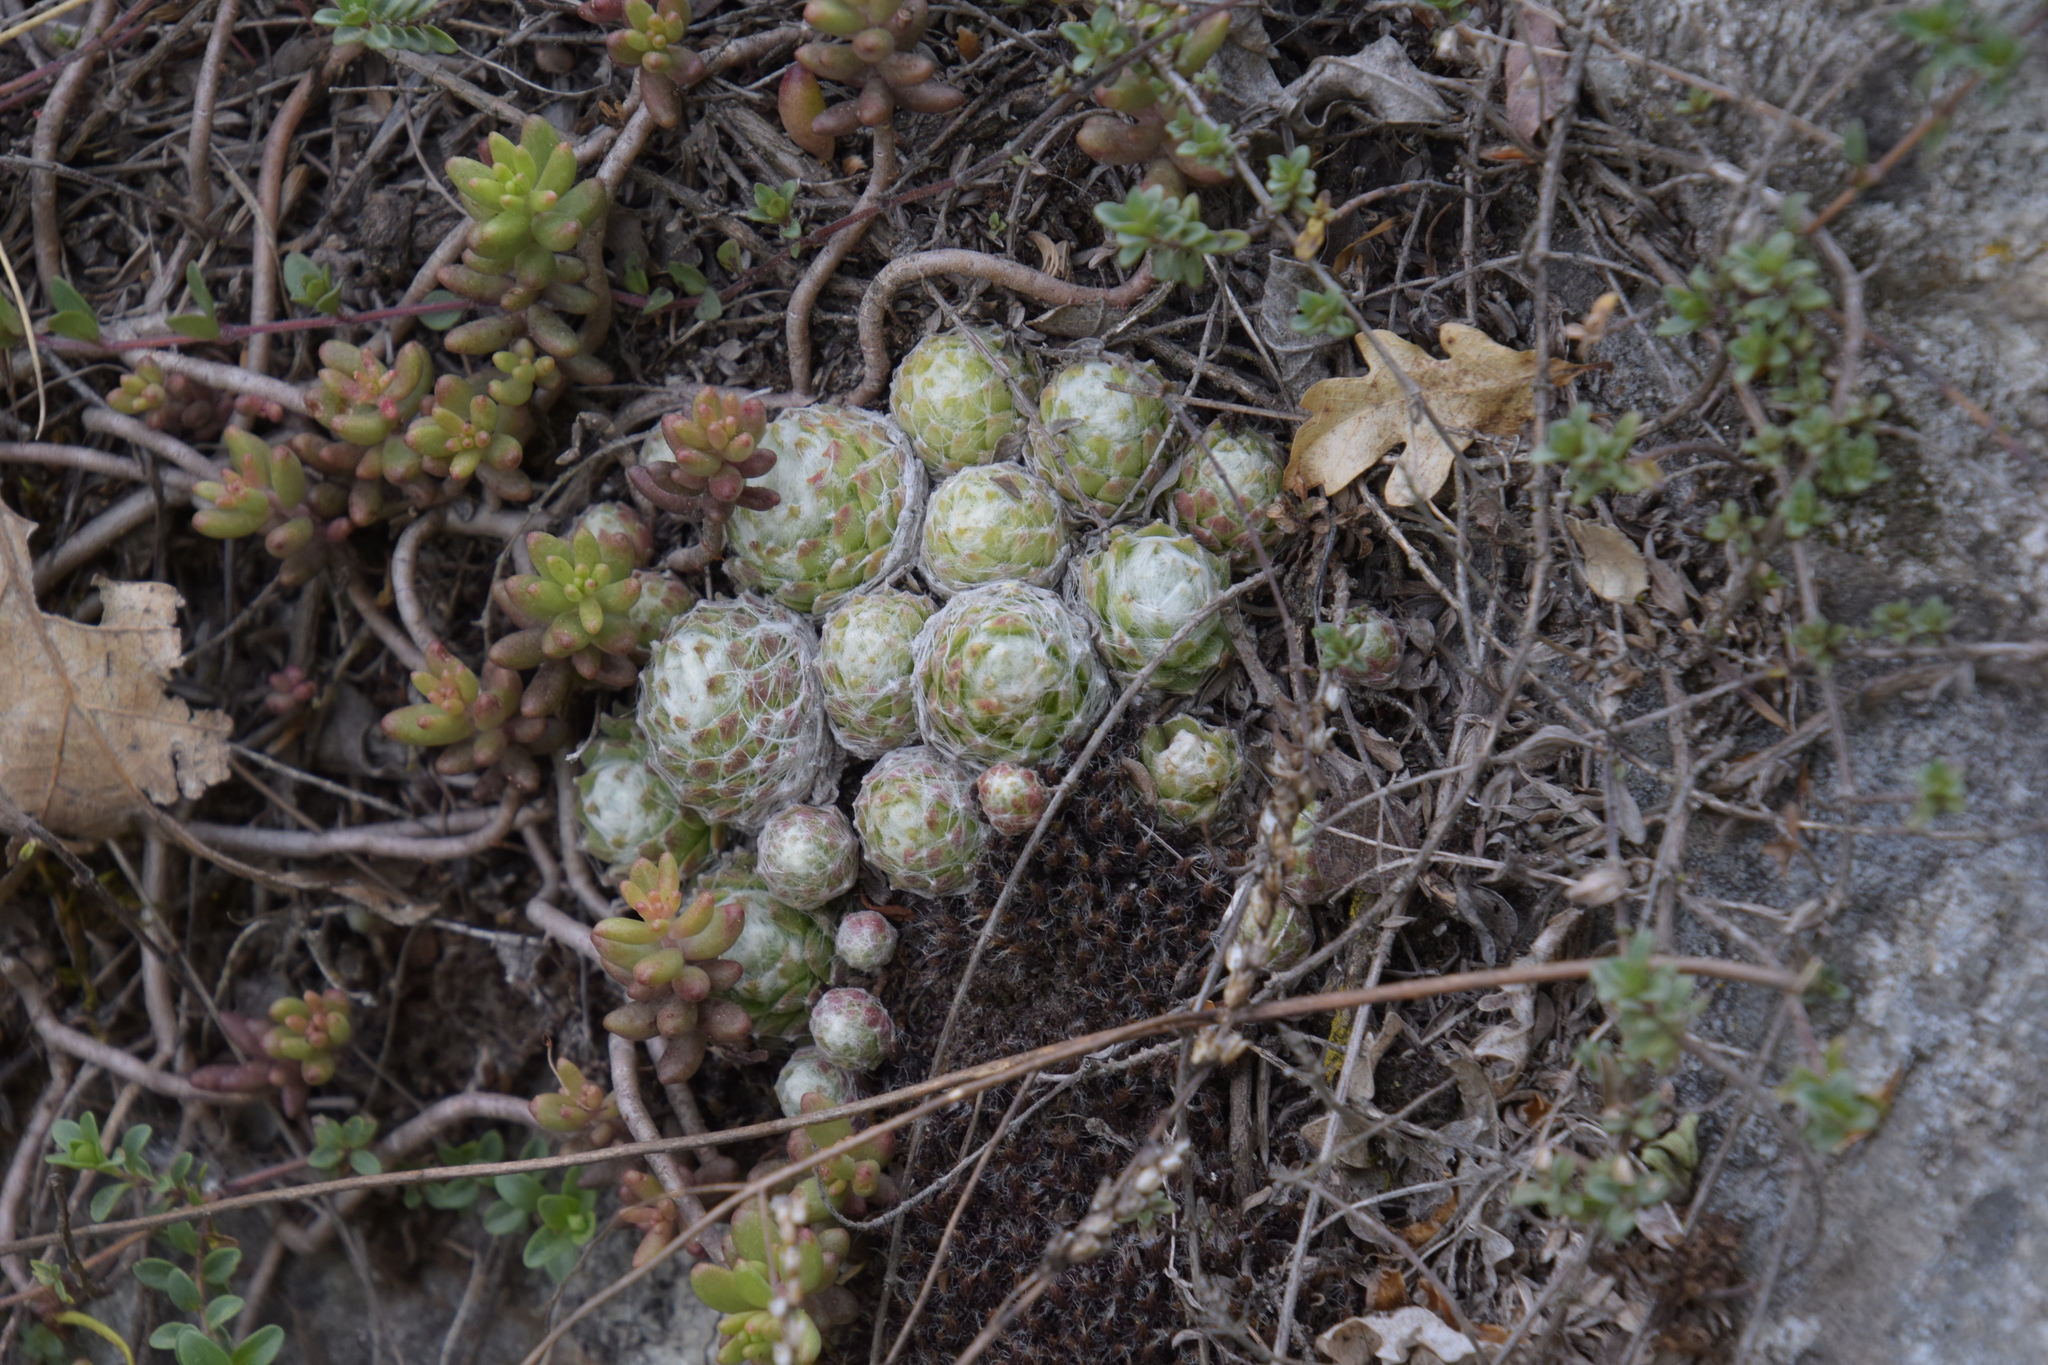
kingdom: Plantae
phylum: Tracheophyta
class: Magnoliopsida
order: Saxifragales
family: Crassulaceae
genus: Sempervivum
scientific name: Sempervivum arachnoideum
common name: Cobweb house-leek
